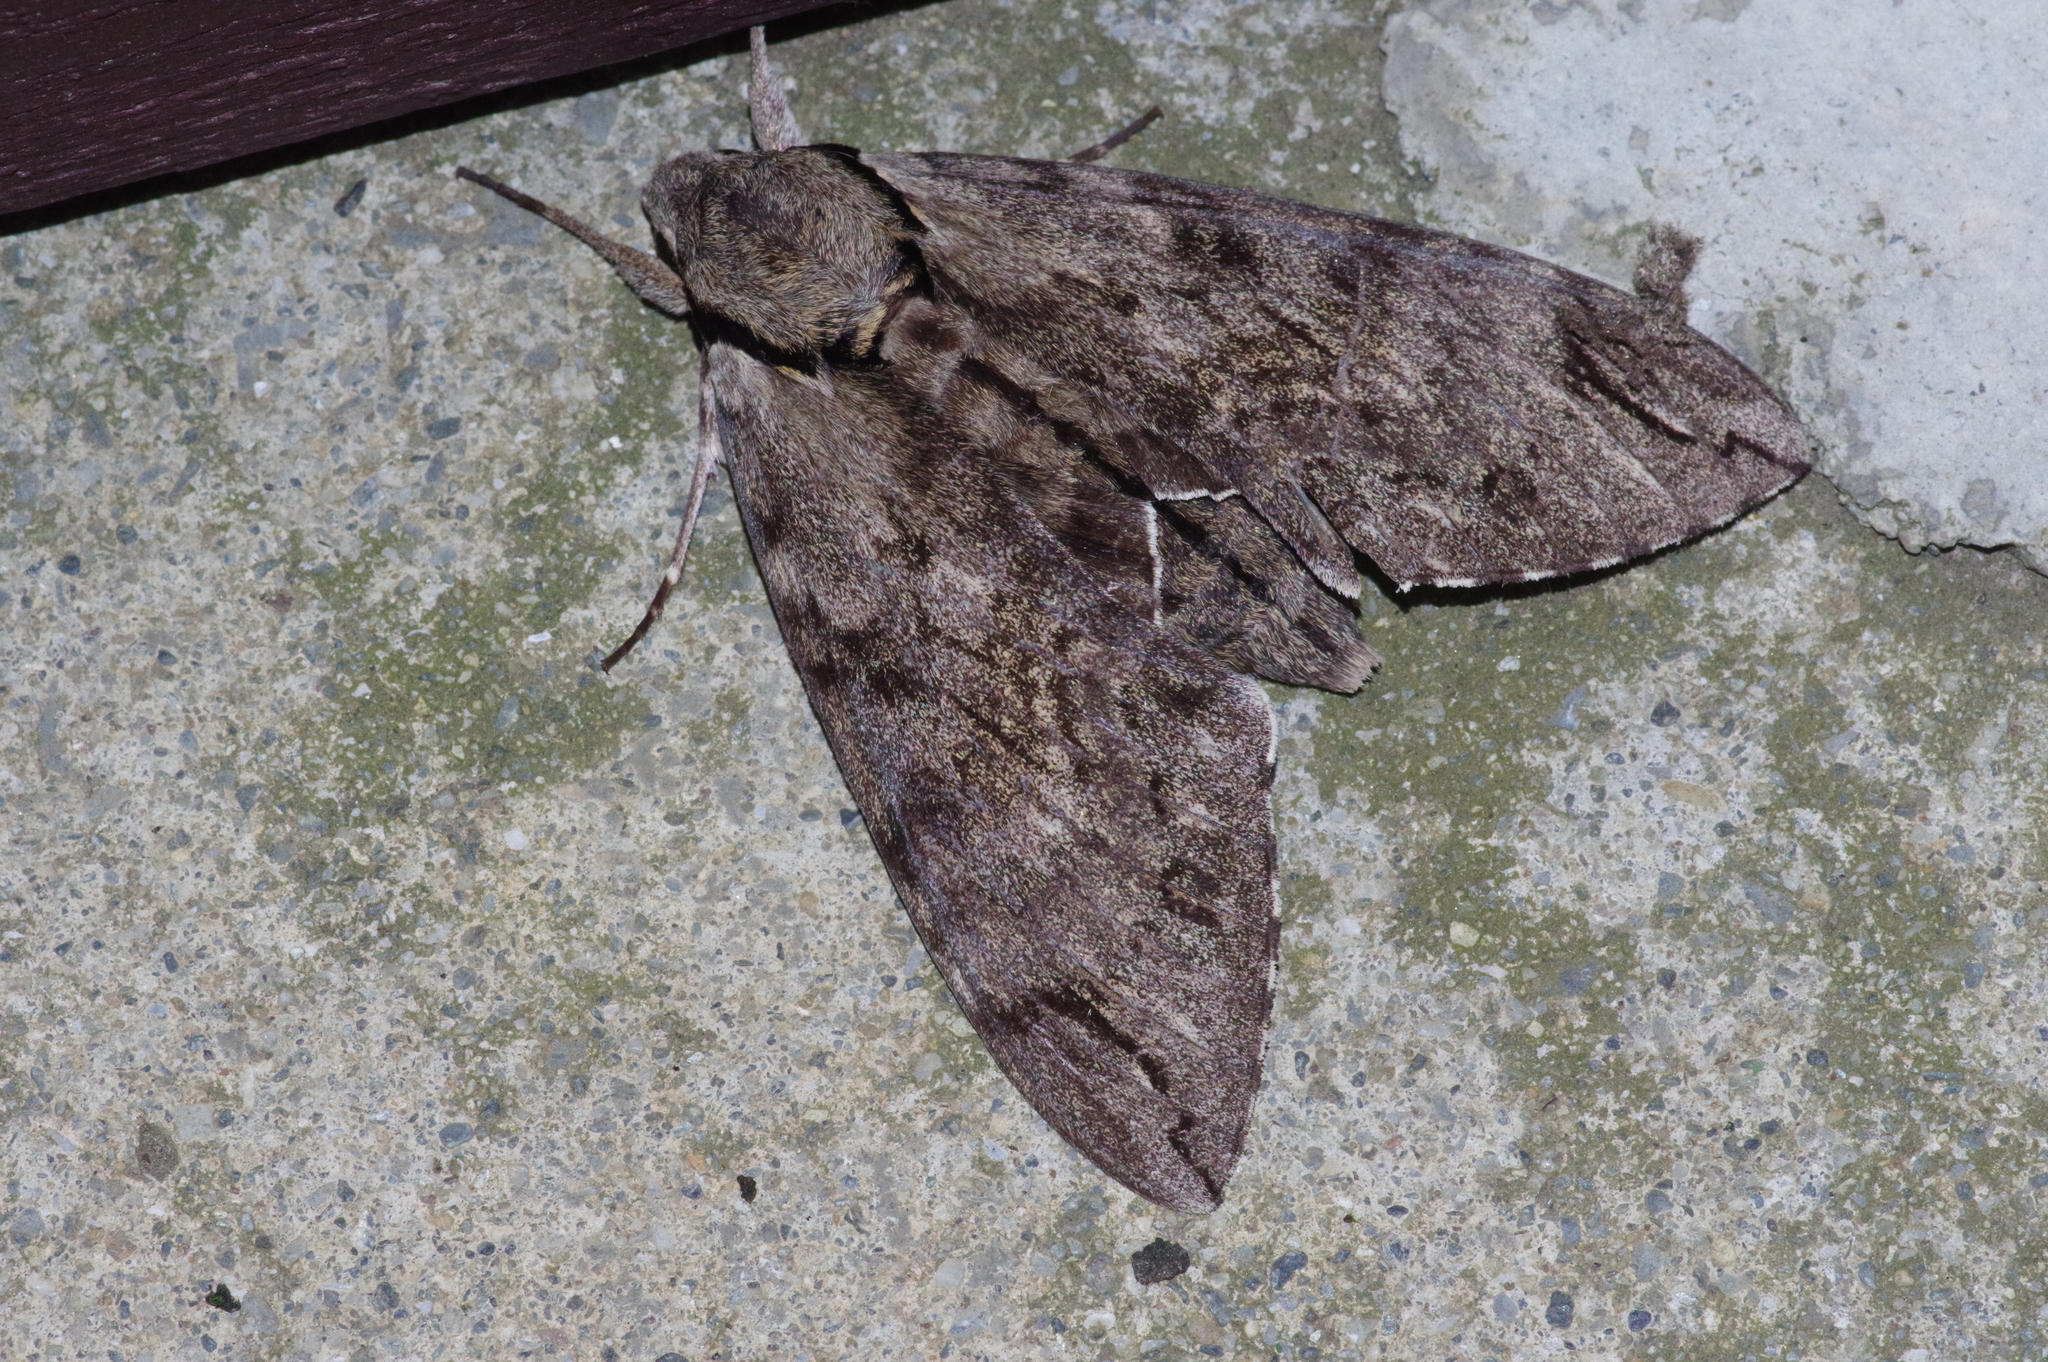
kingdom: Animalia
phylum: Arthropoda
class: Insecta
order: Lepidoptera
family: Sphingidae
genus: Psilogramma
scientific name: Psilogramma increta
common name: Gray hawk moth
